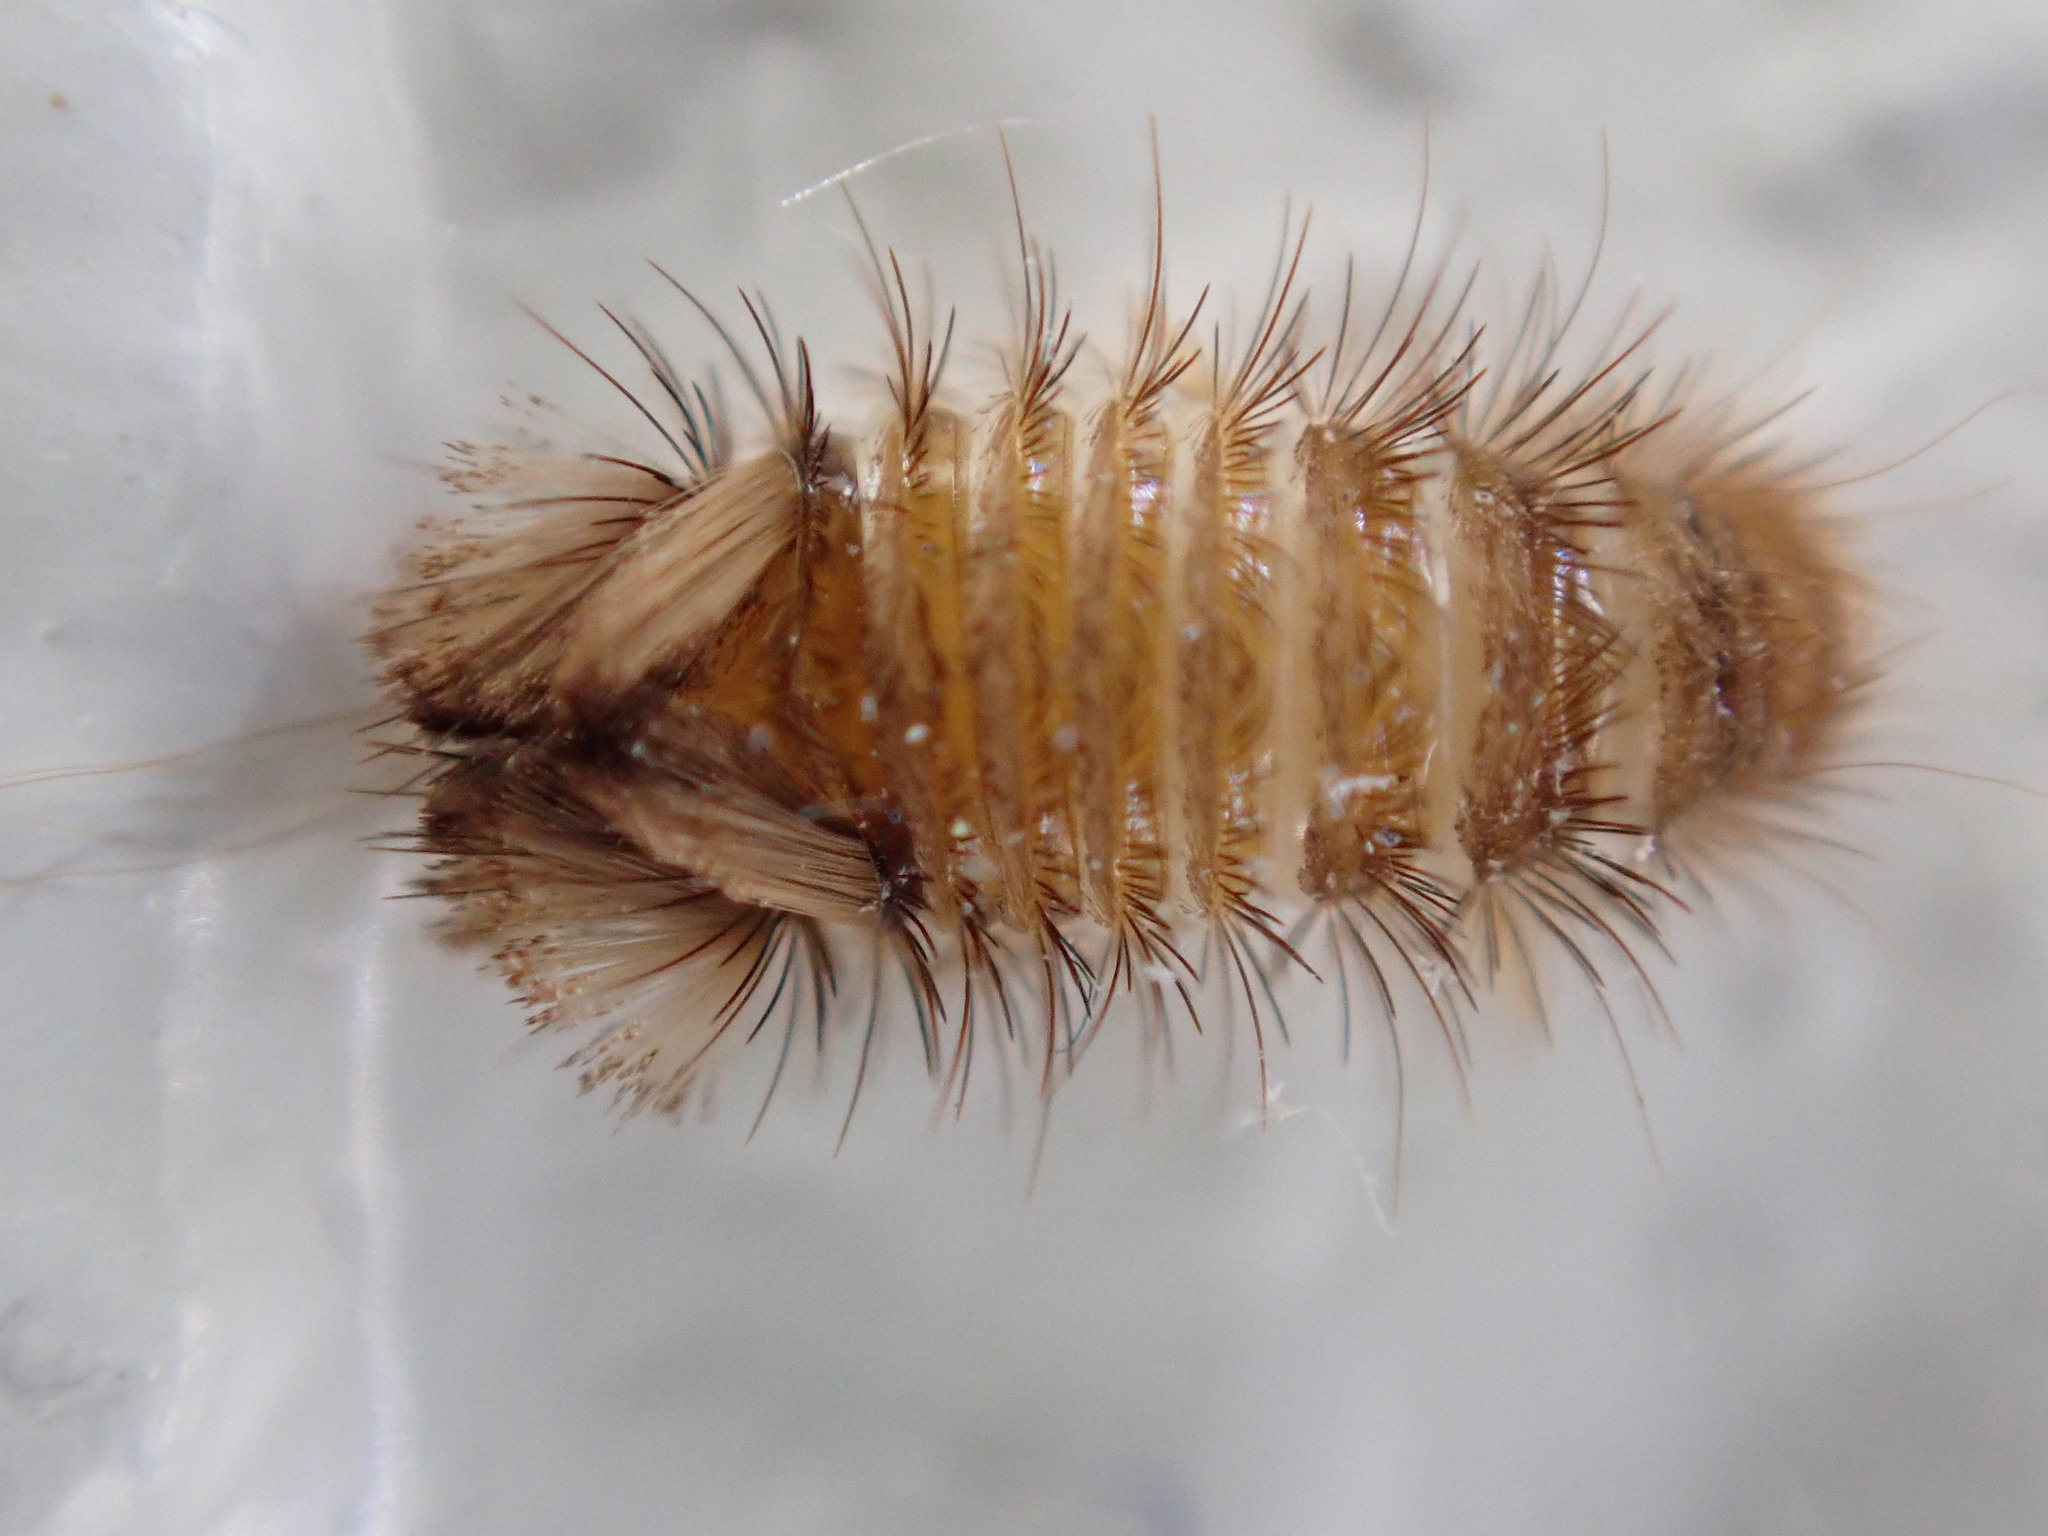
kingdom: Animalia
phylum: Arthropoda
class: Insecta
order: Coleoptera
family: Dermestidae
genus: Anthrenus
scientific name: Anthrenus verbasci
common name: Varied carpet beetle
